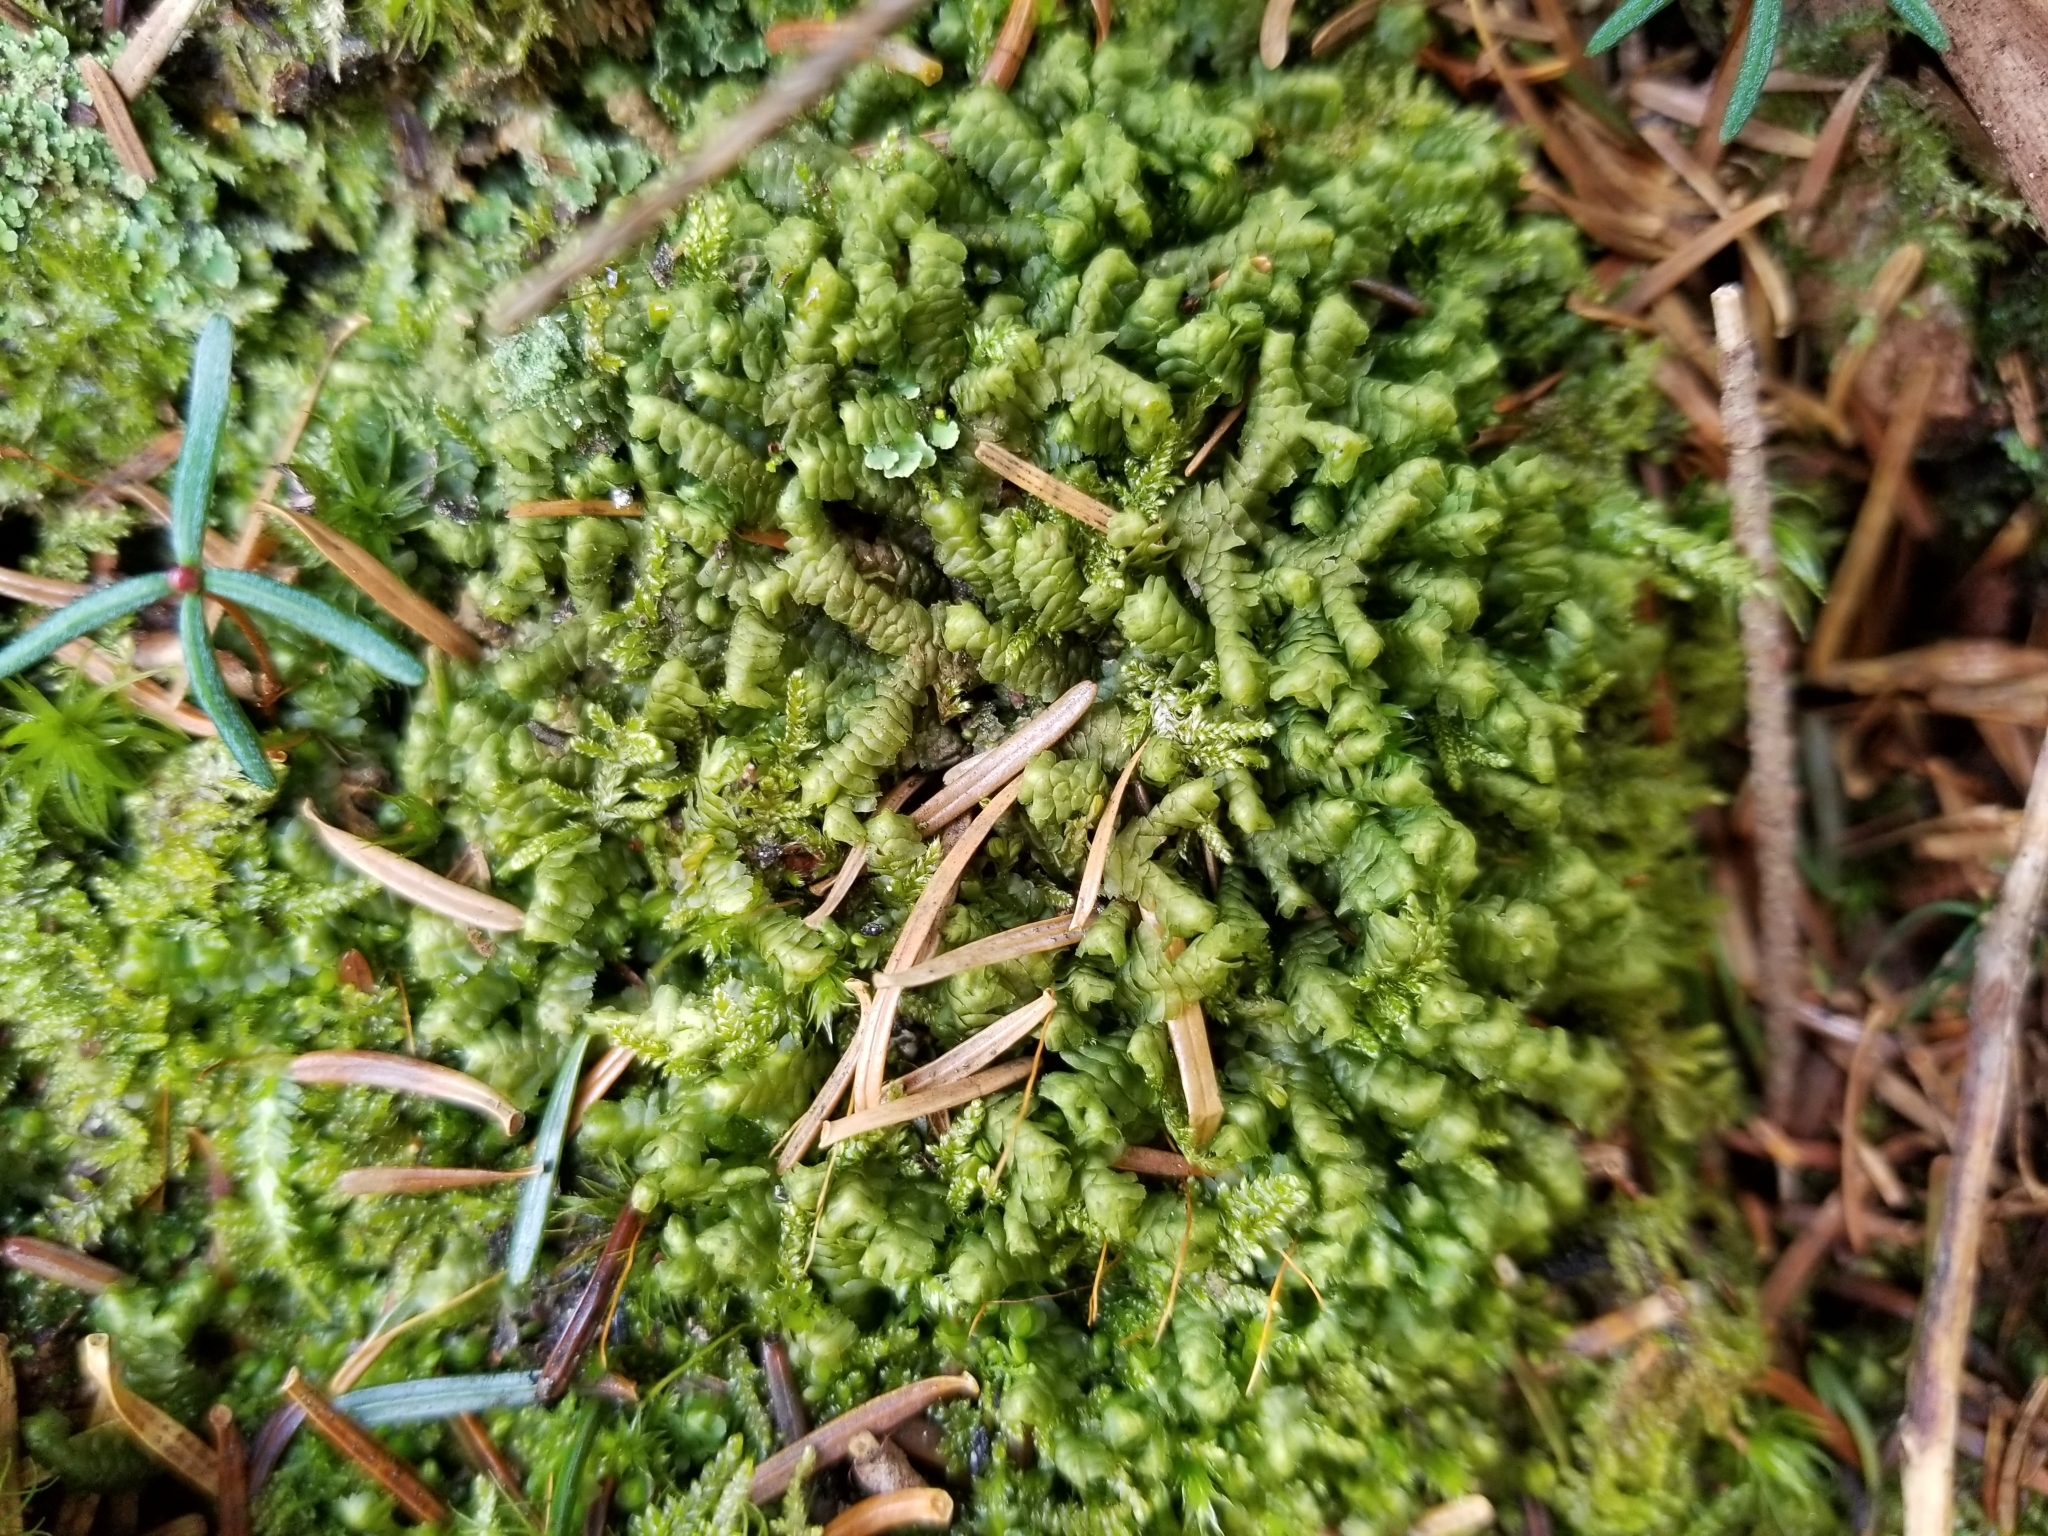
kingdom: Plantae
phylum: Marchantiophyta
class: Jungermanniopsida
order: Jungermanniales
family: Lepidoziaceae
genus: Bazzania
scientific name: Bazzania trilobata
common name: Three-lobed whipwort
